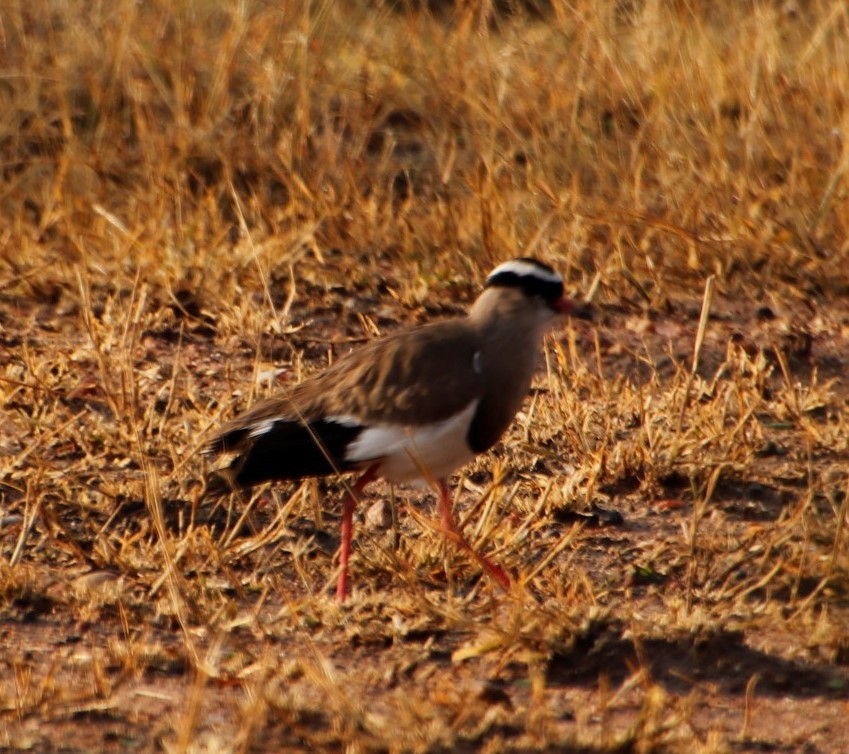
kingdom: Animalia
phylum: Chordata
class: Aves
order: Charadriiformes
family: Charadriidae
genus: Vanellus
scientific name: Vanellus coronatus
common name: Crowned lapwing
